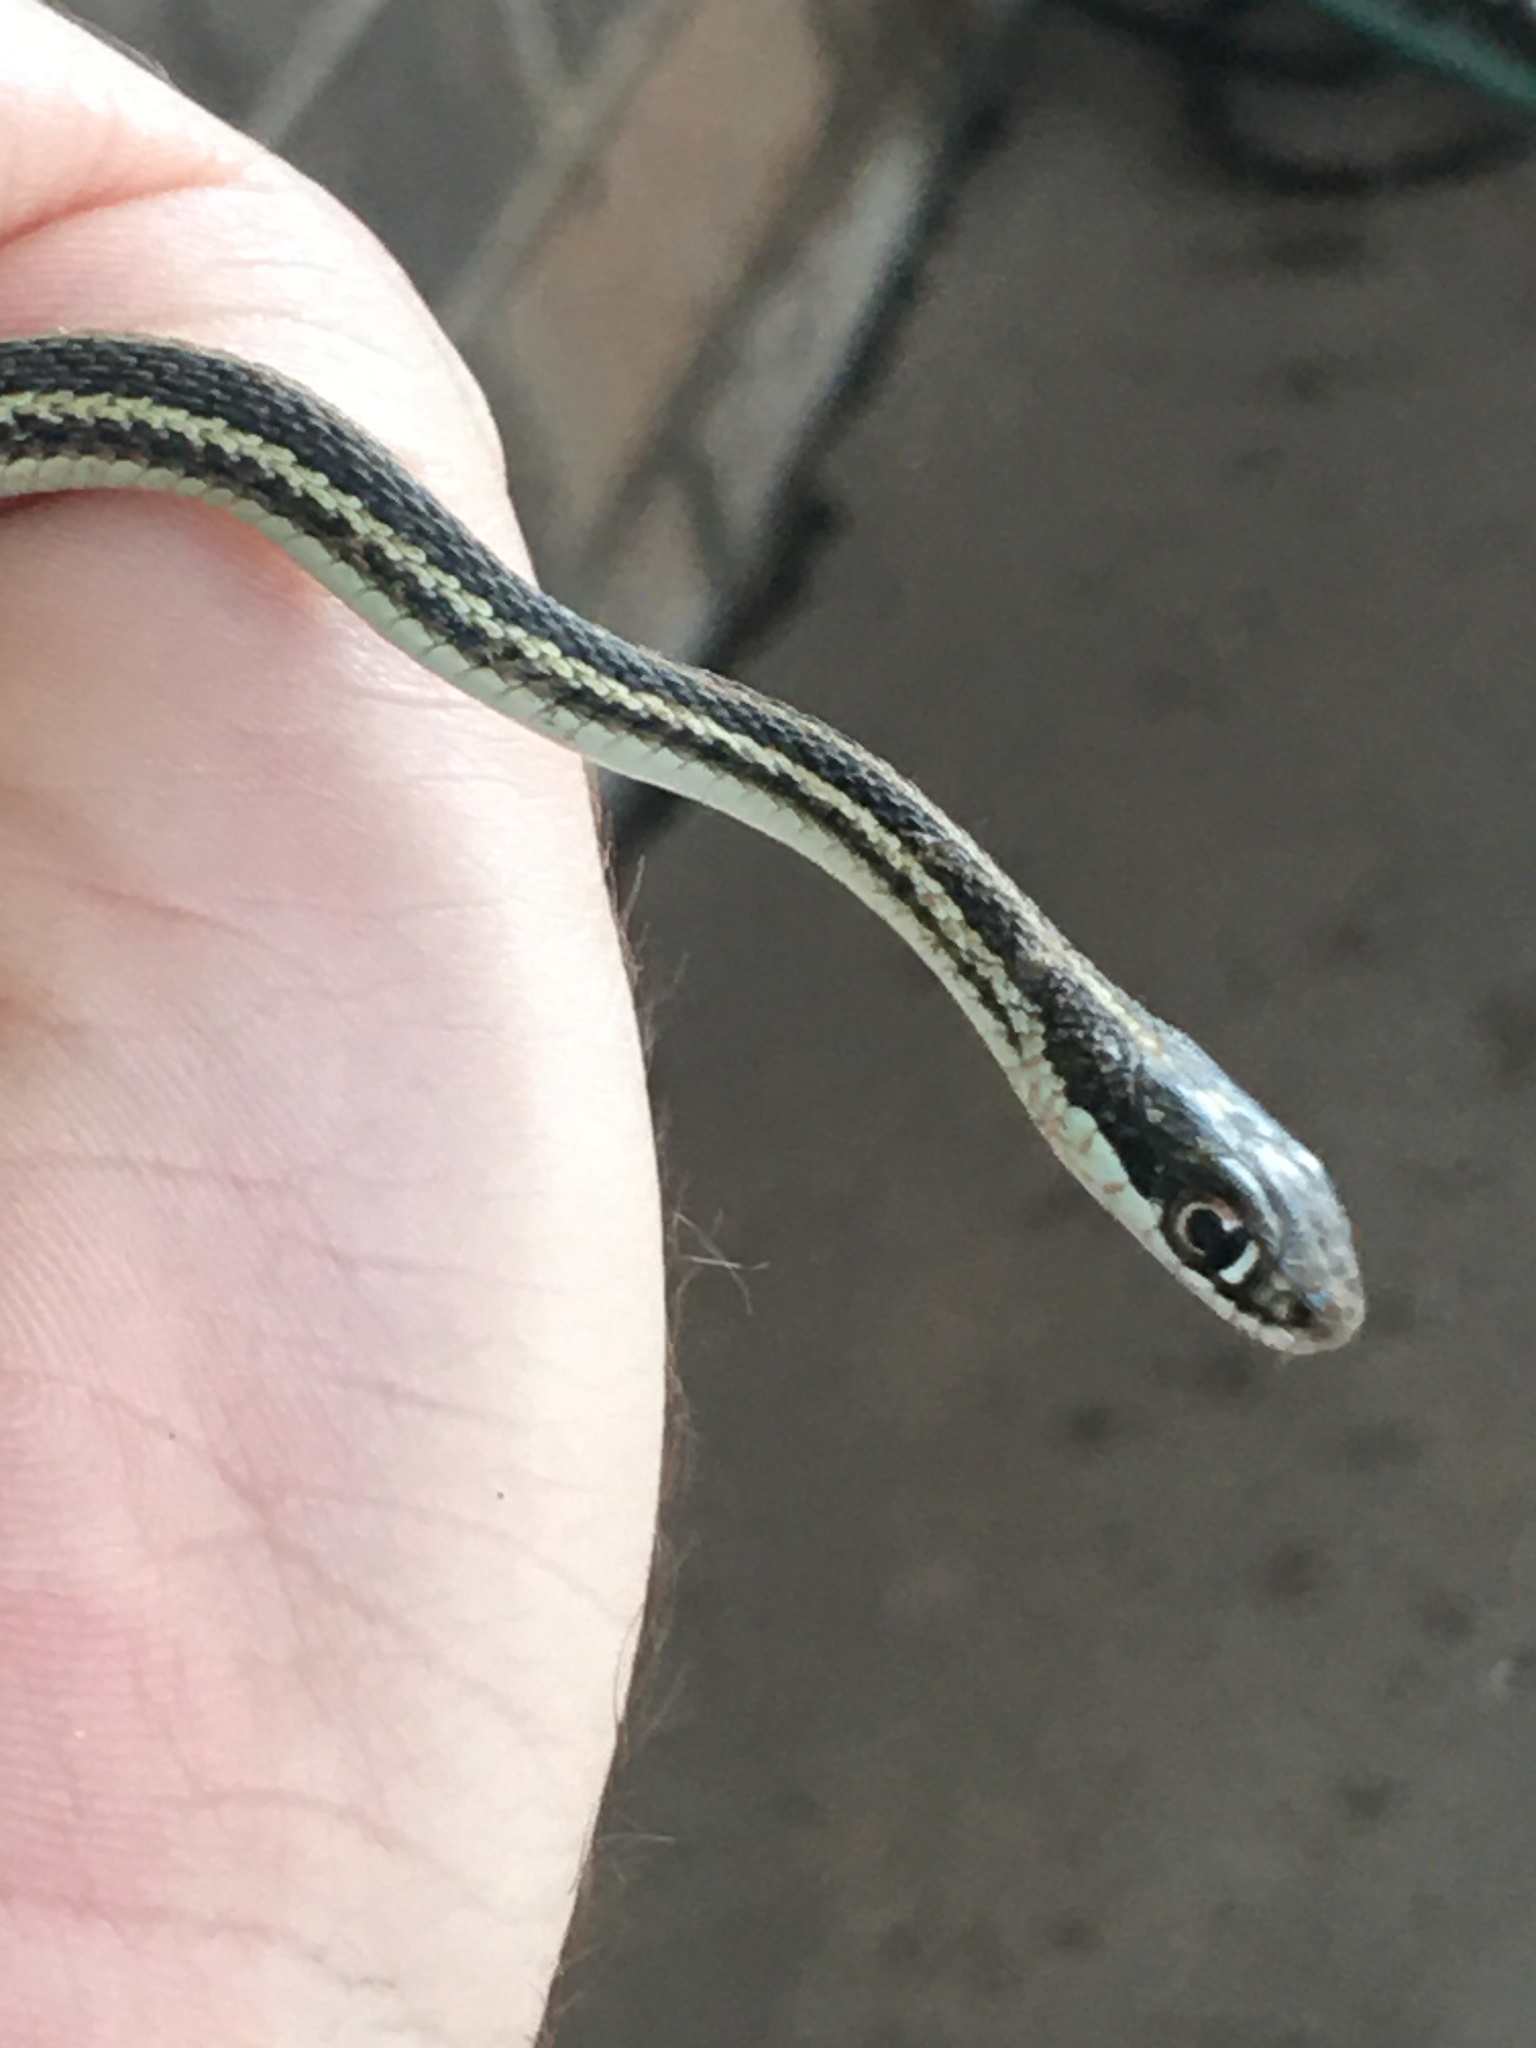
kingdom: Animalia
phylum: Chordata
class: Squamata
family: Colubridae
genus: Thamnophis
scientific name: Thamnophis proximus
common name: Western ribbon snake
